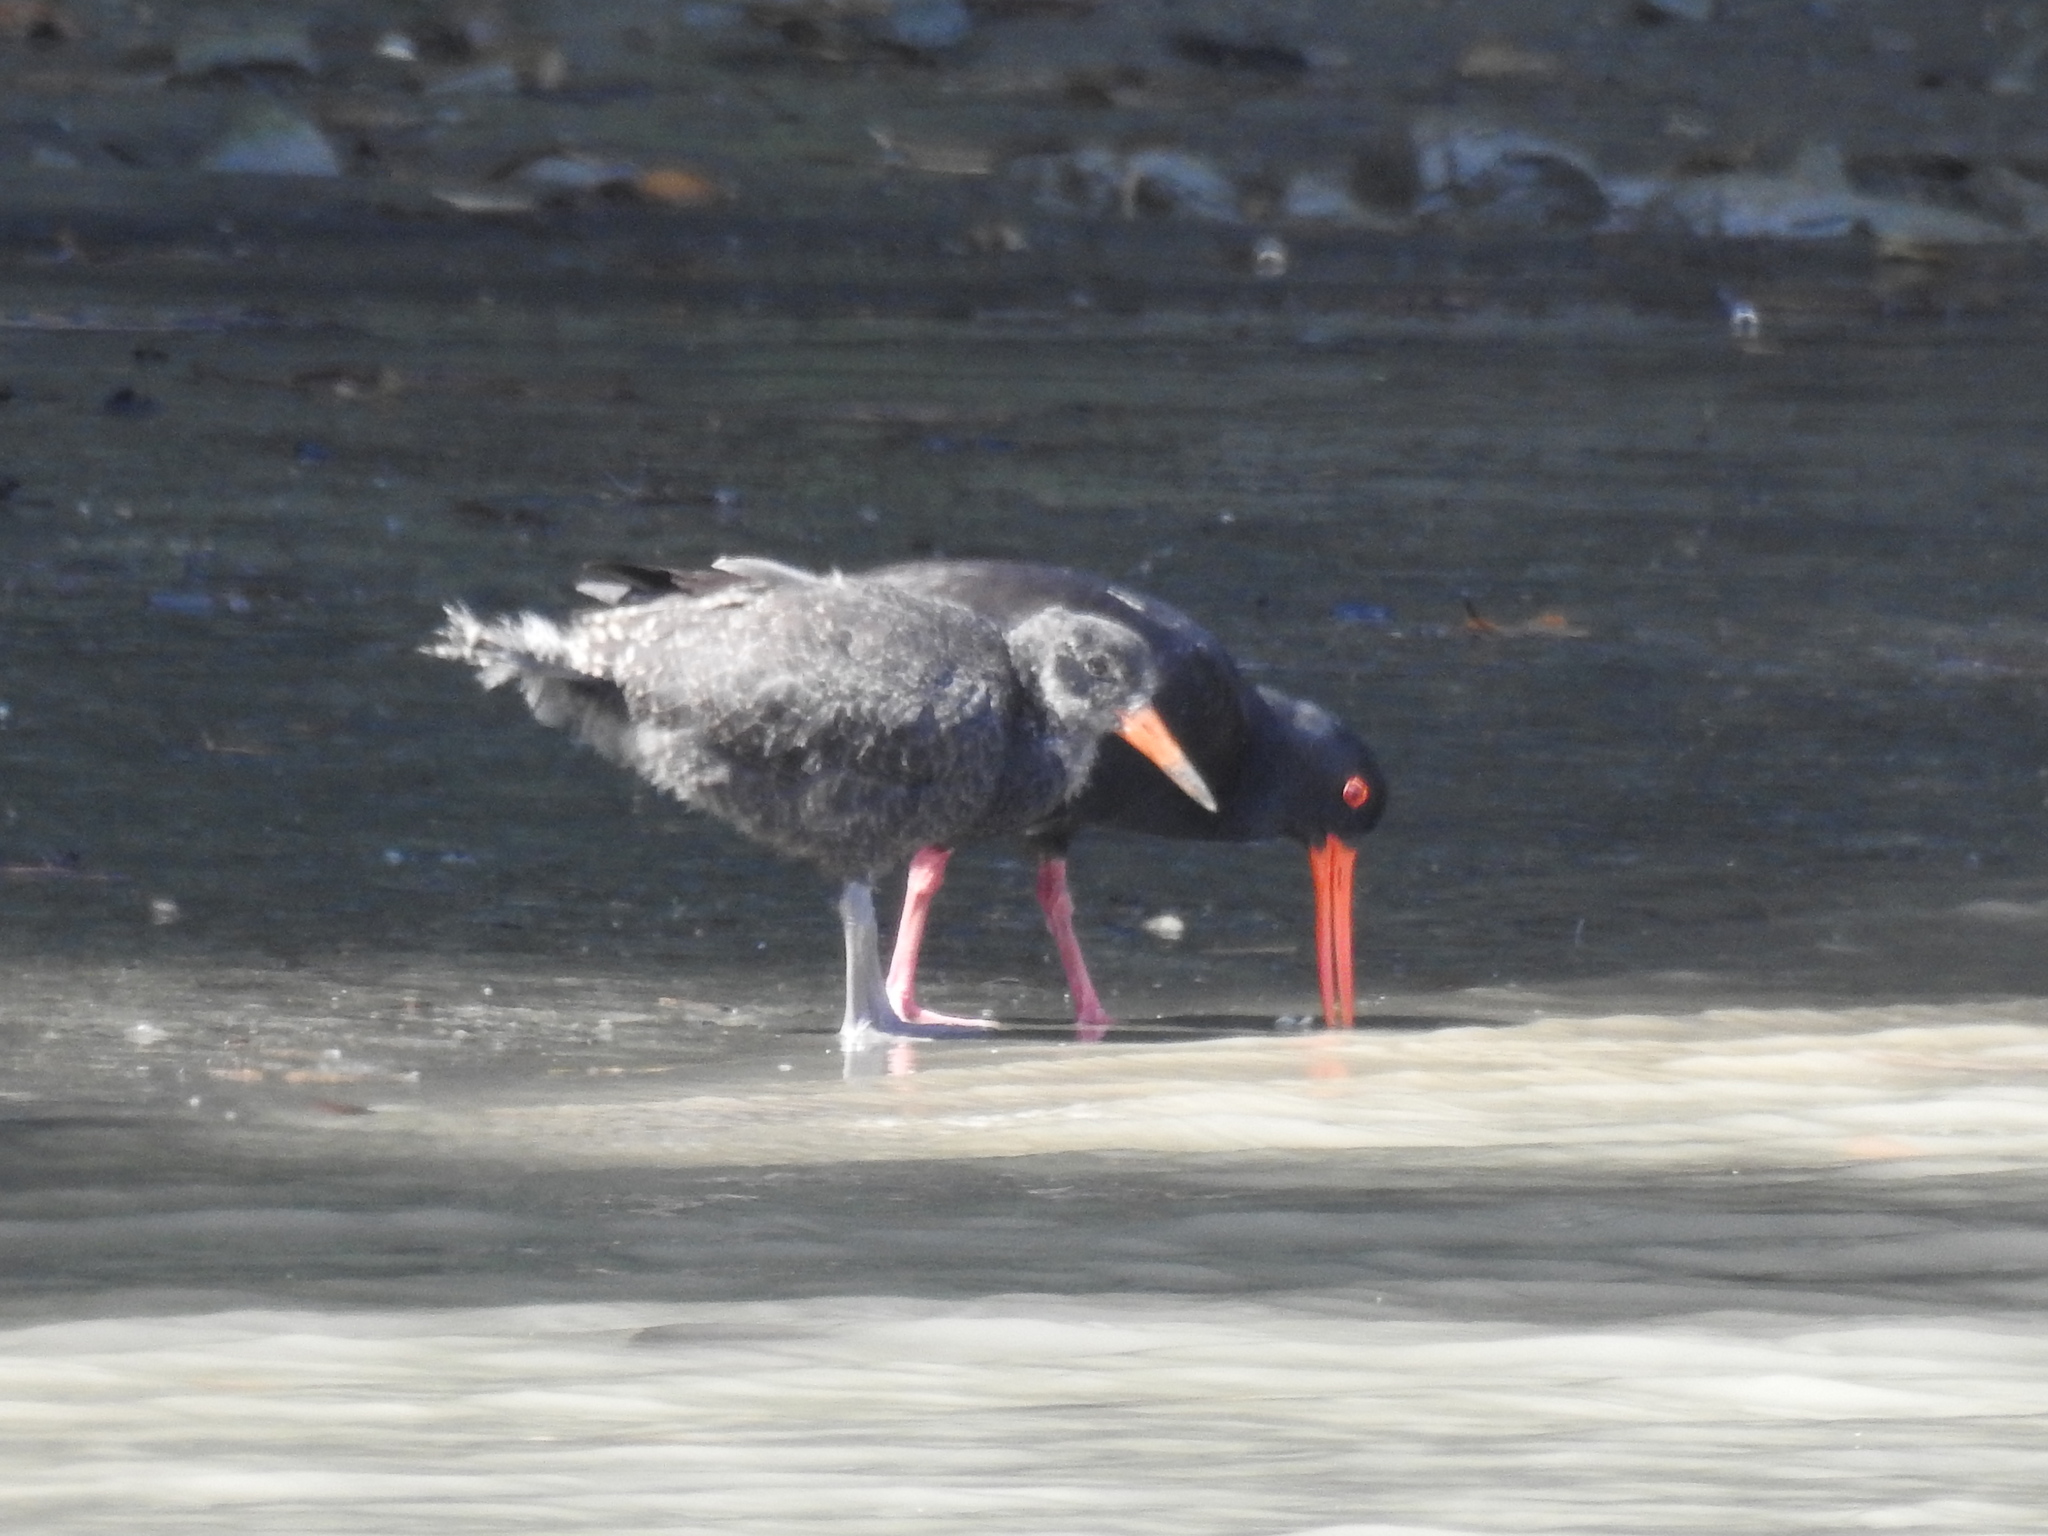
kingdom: Animalia
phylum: Chordata
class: Aves
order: Charadriiformes
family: Haematopodidae
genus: Haematopus
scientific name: Haematopus unicolor
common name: Variable oystercatcher
